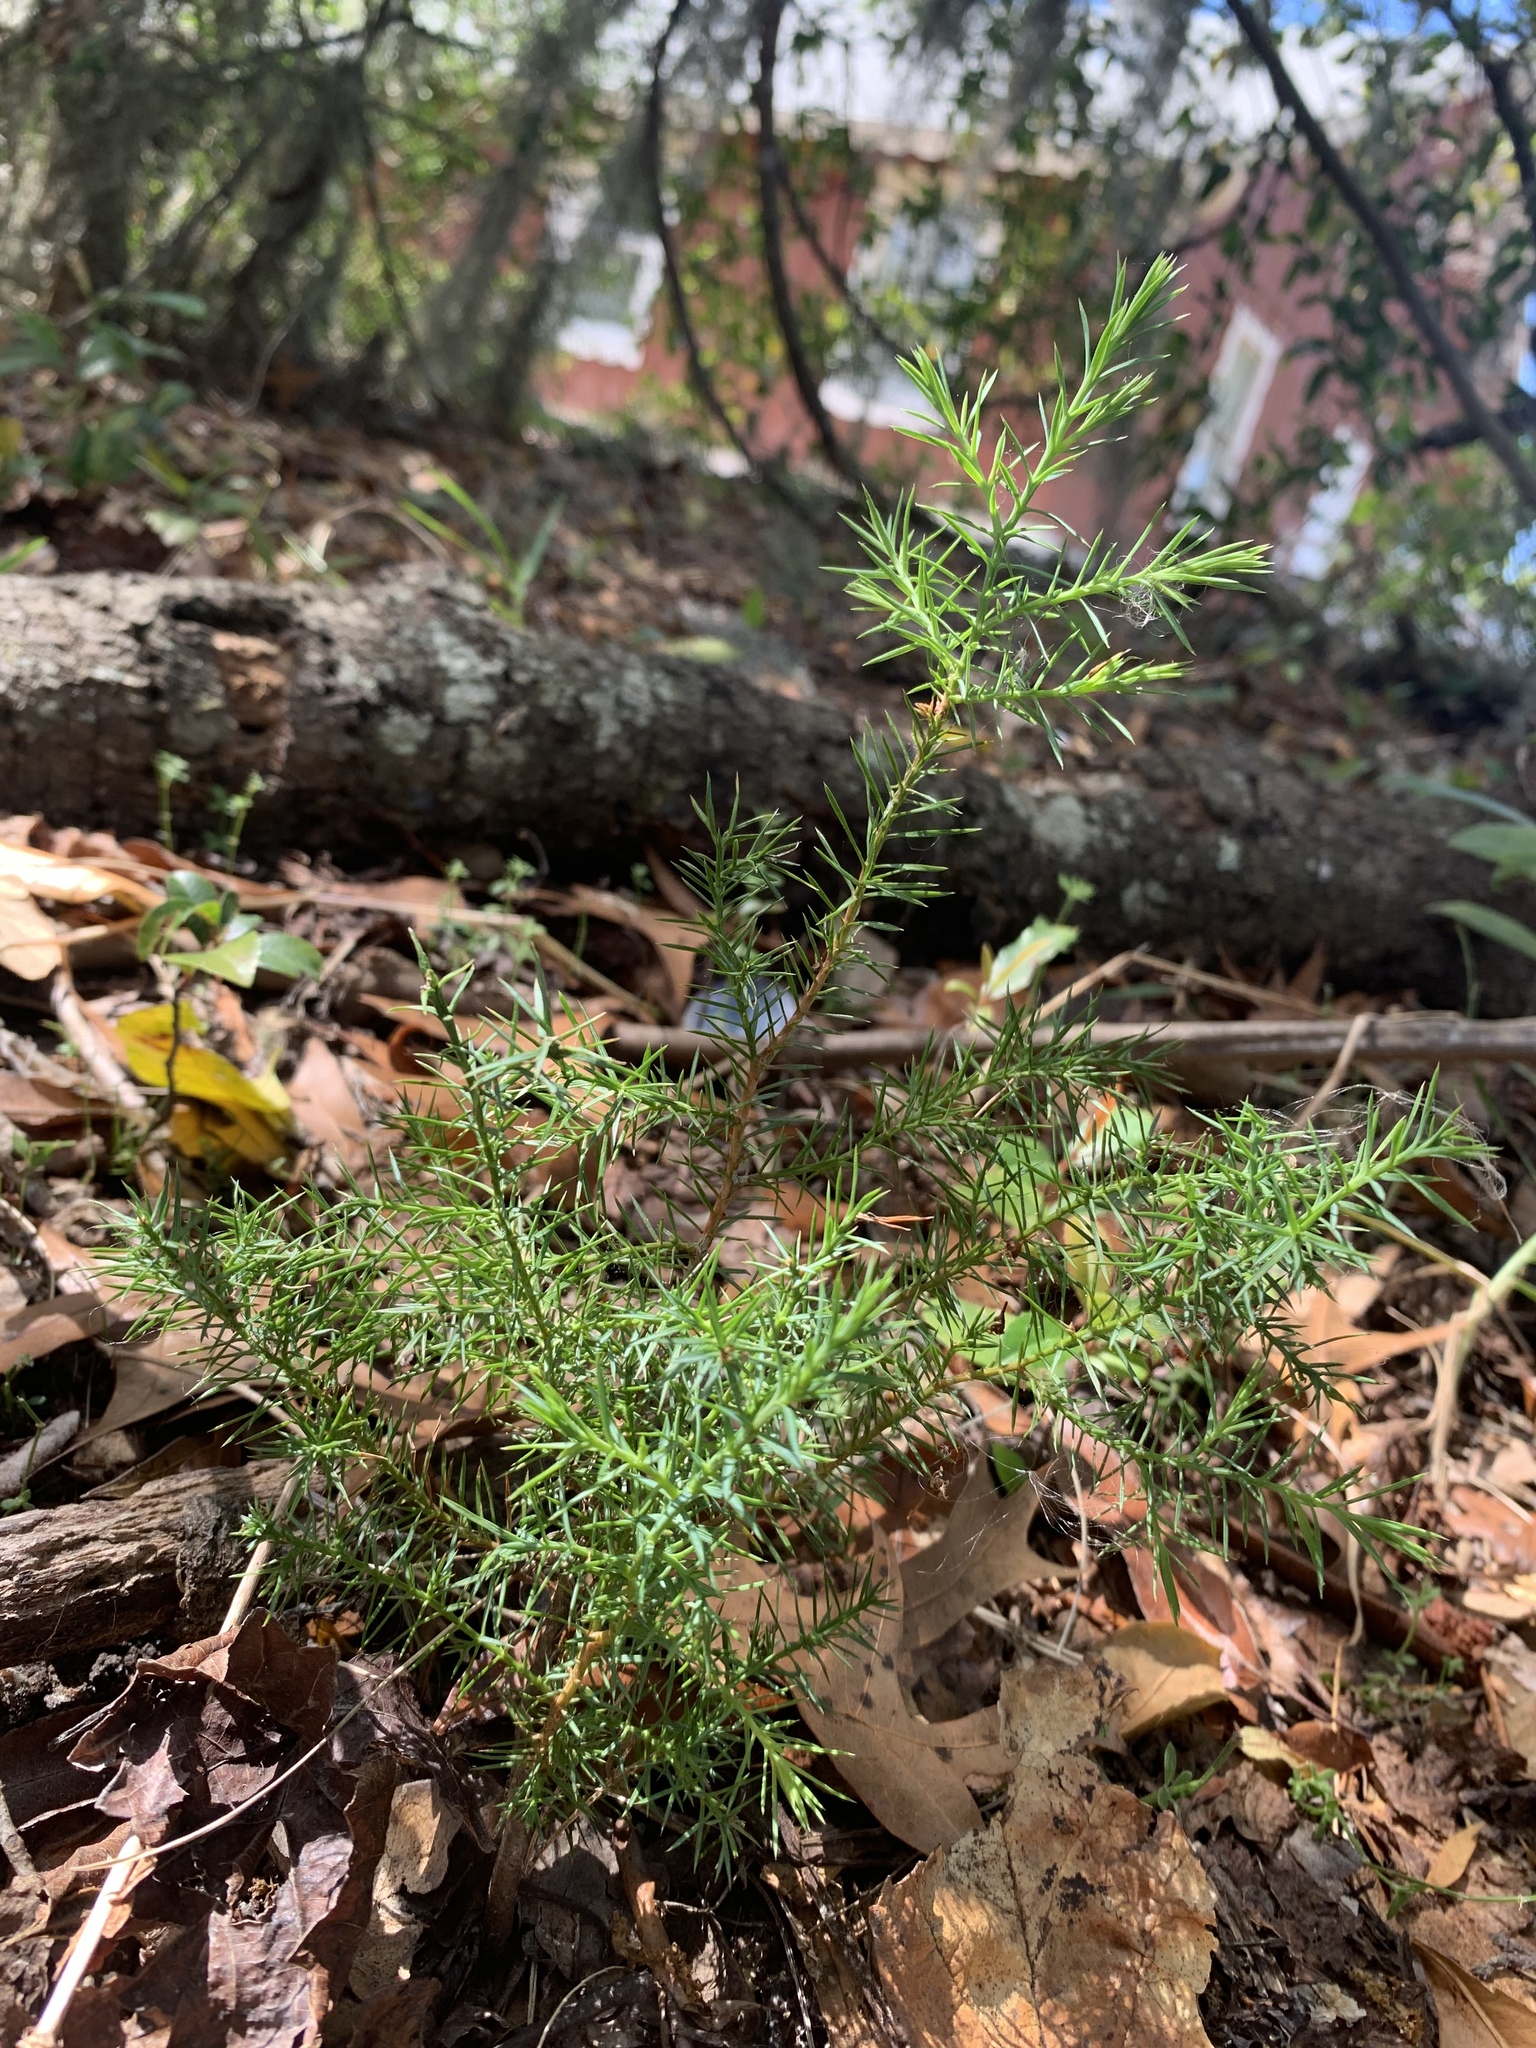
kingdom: Plantae
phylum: Tracheophyta
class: Pinopsida
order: Pinales
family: Cupressaceae
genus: Juniperus
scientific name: Juniperus virginiana
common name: Red juniper
